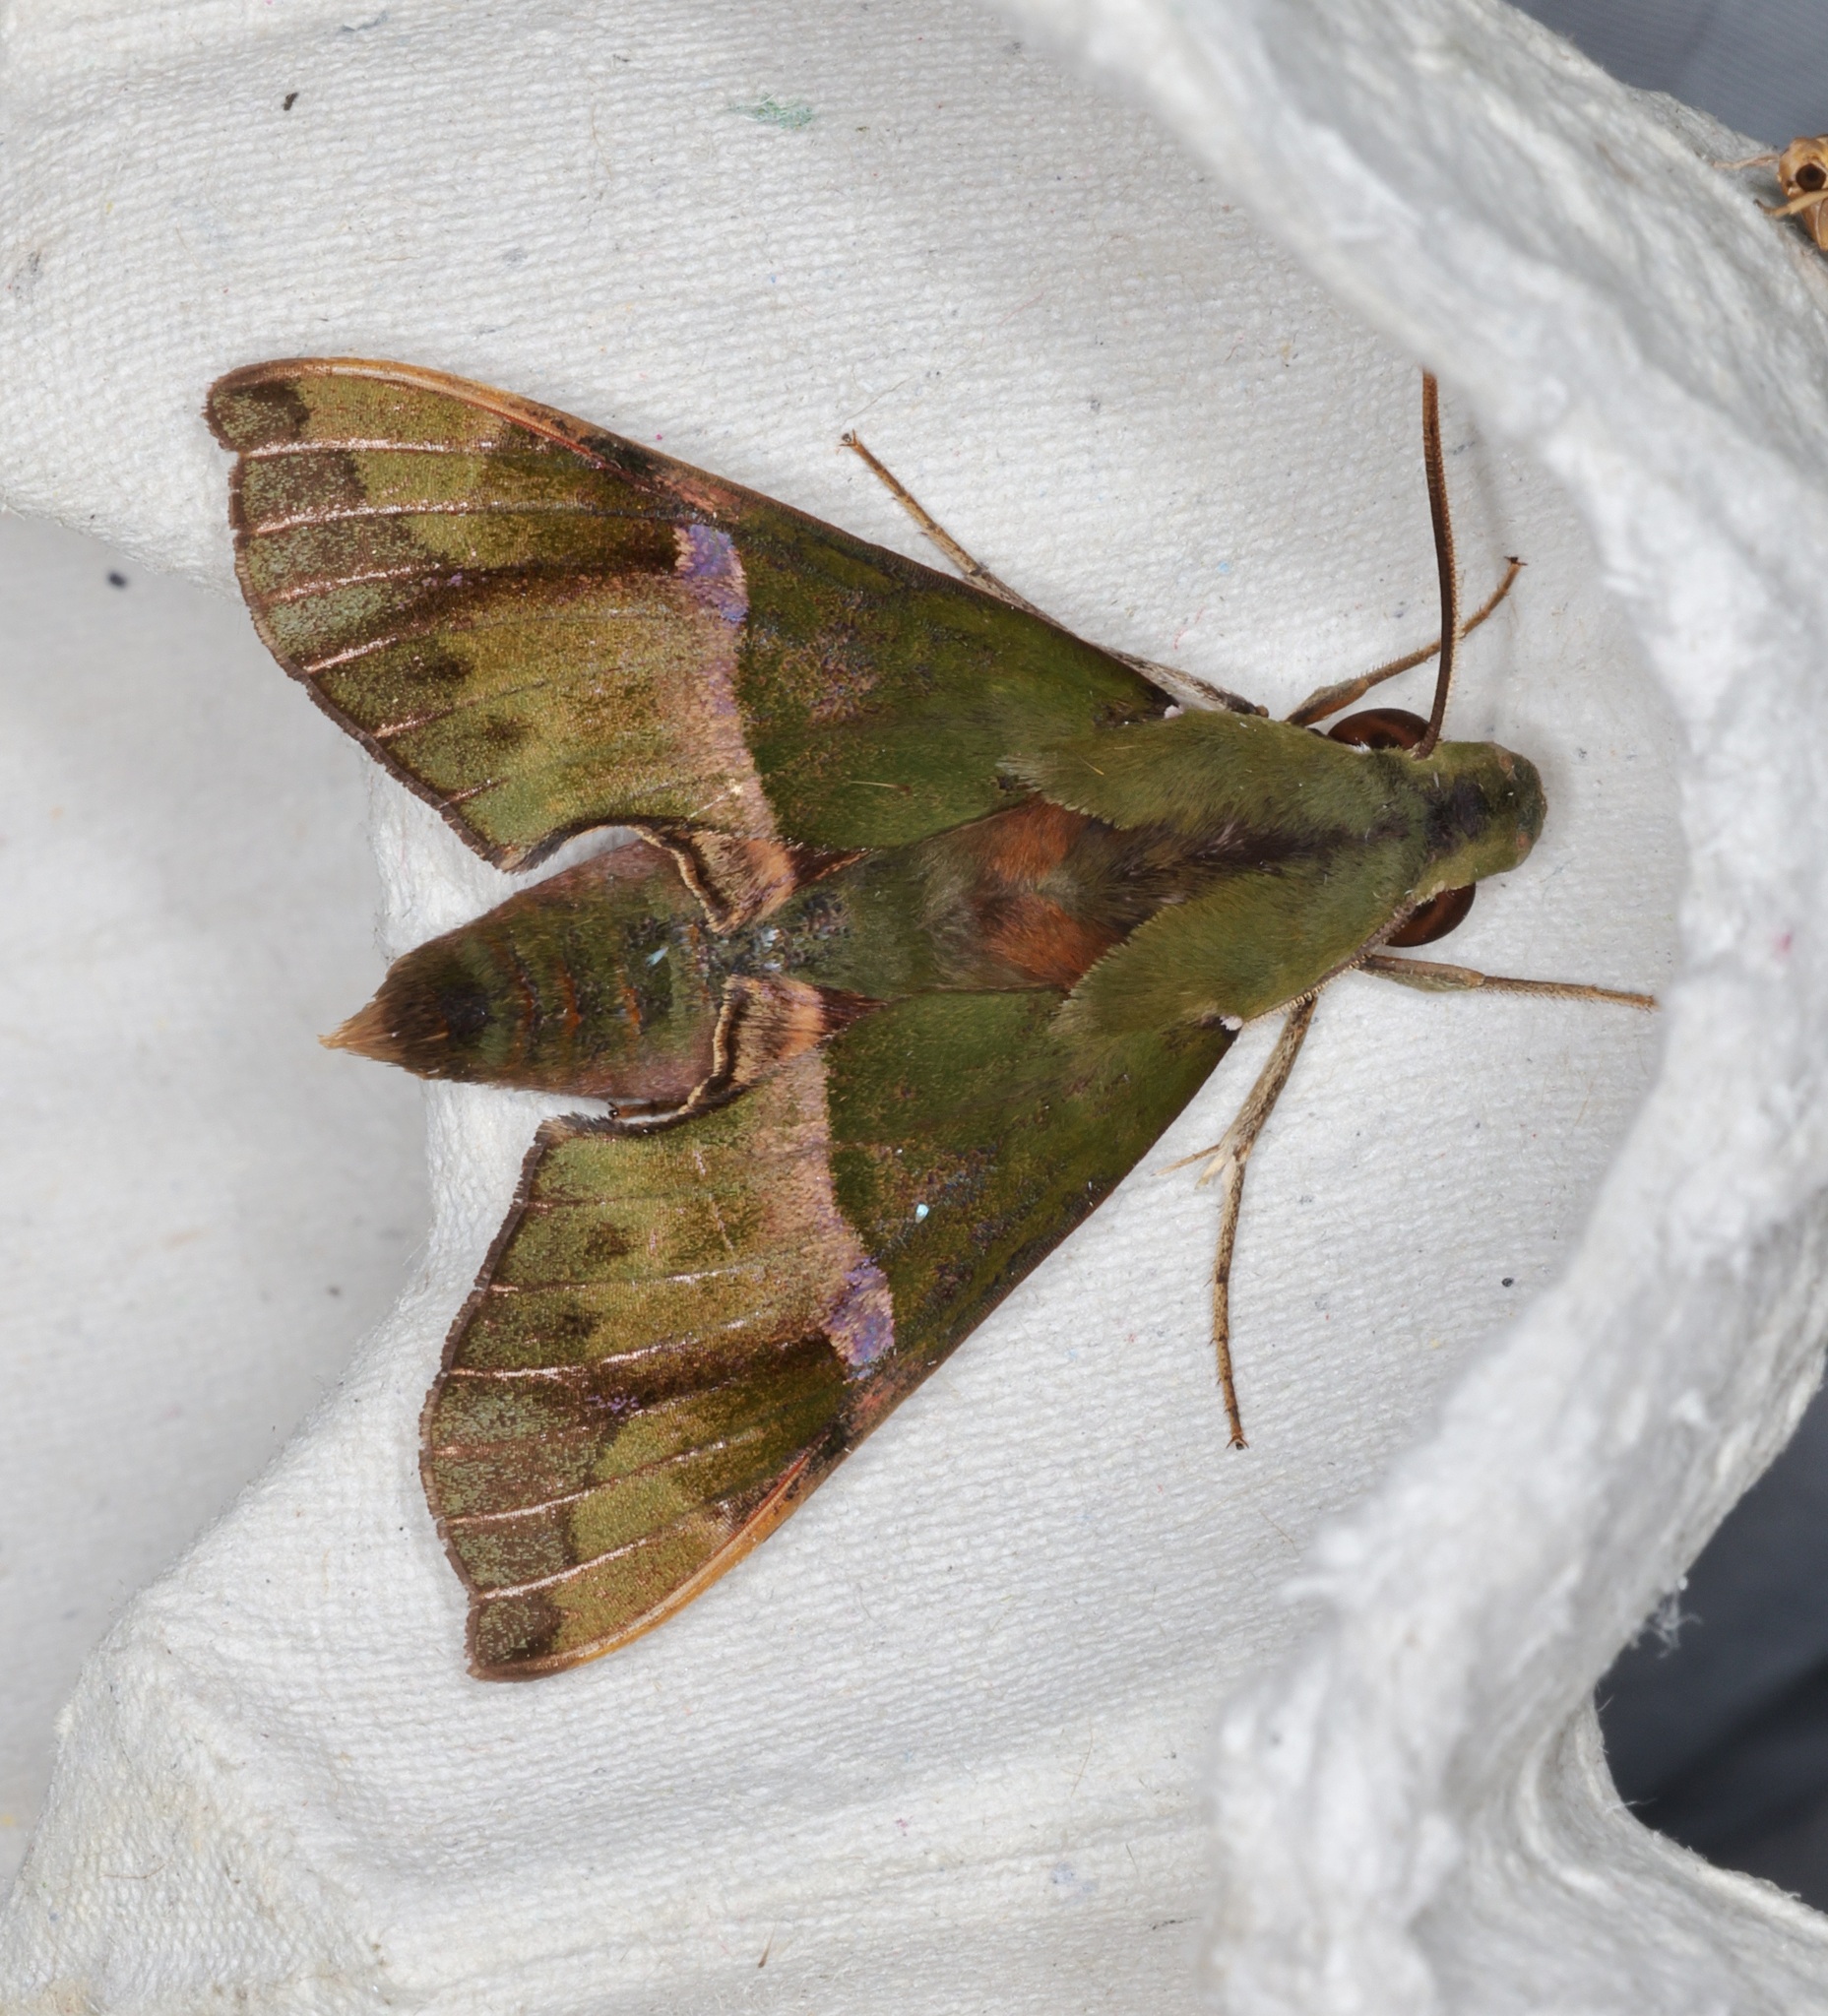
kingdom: Animalia
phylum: Arthropoda
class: Insecta
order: Lepidoptera
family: Sphingidae
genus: Angonyx
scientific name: Angonyx testacea
